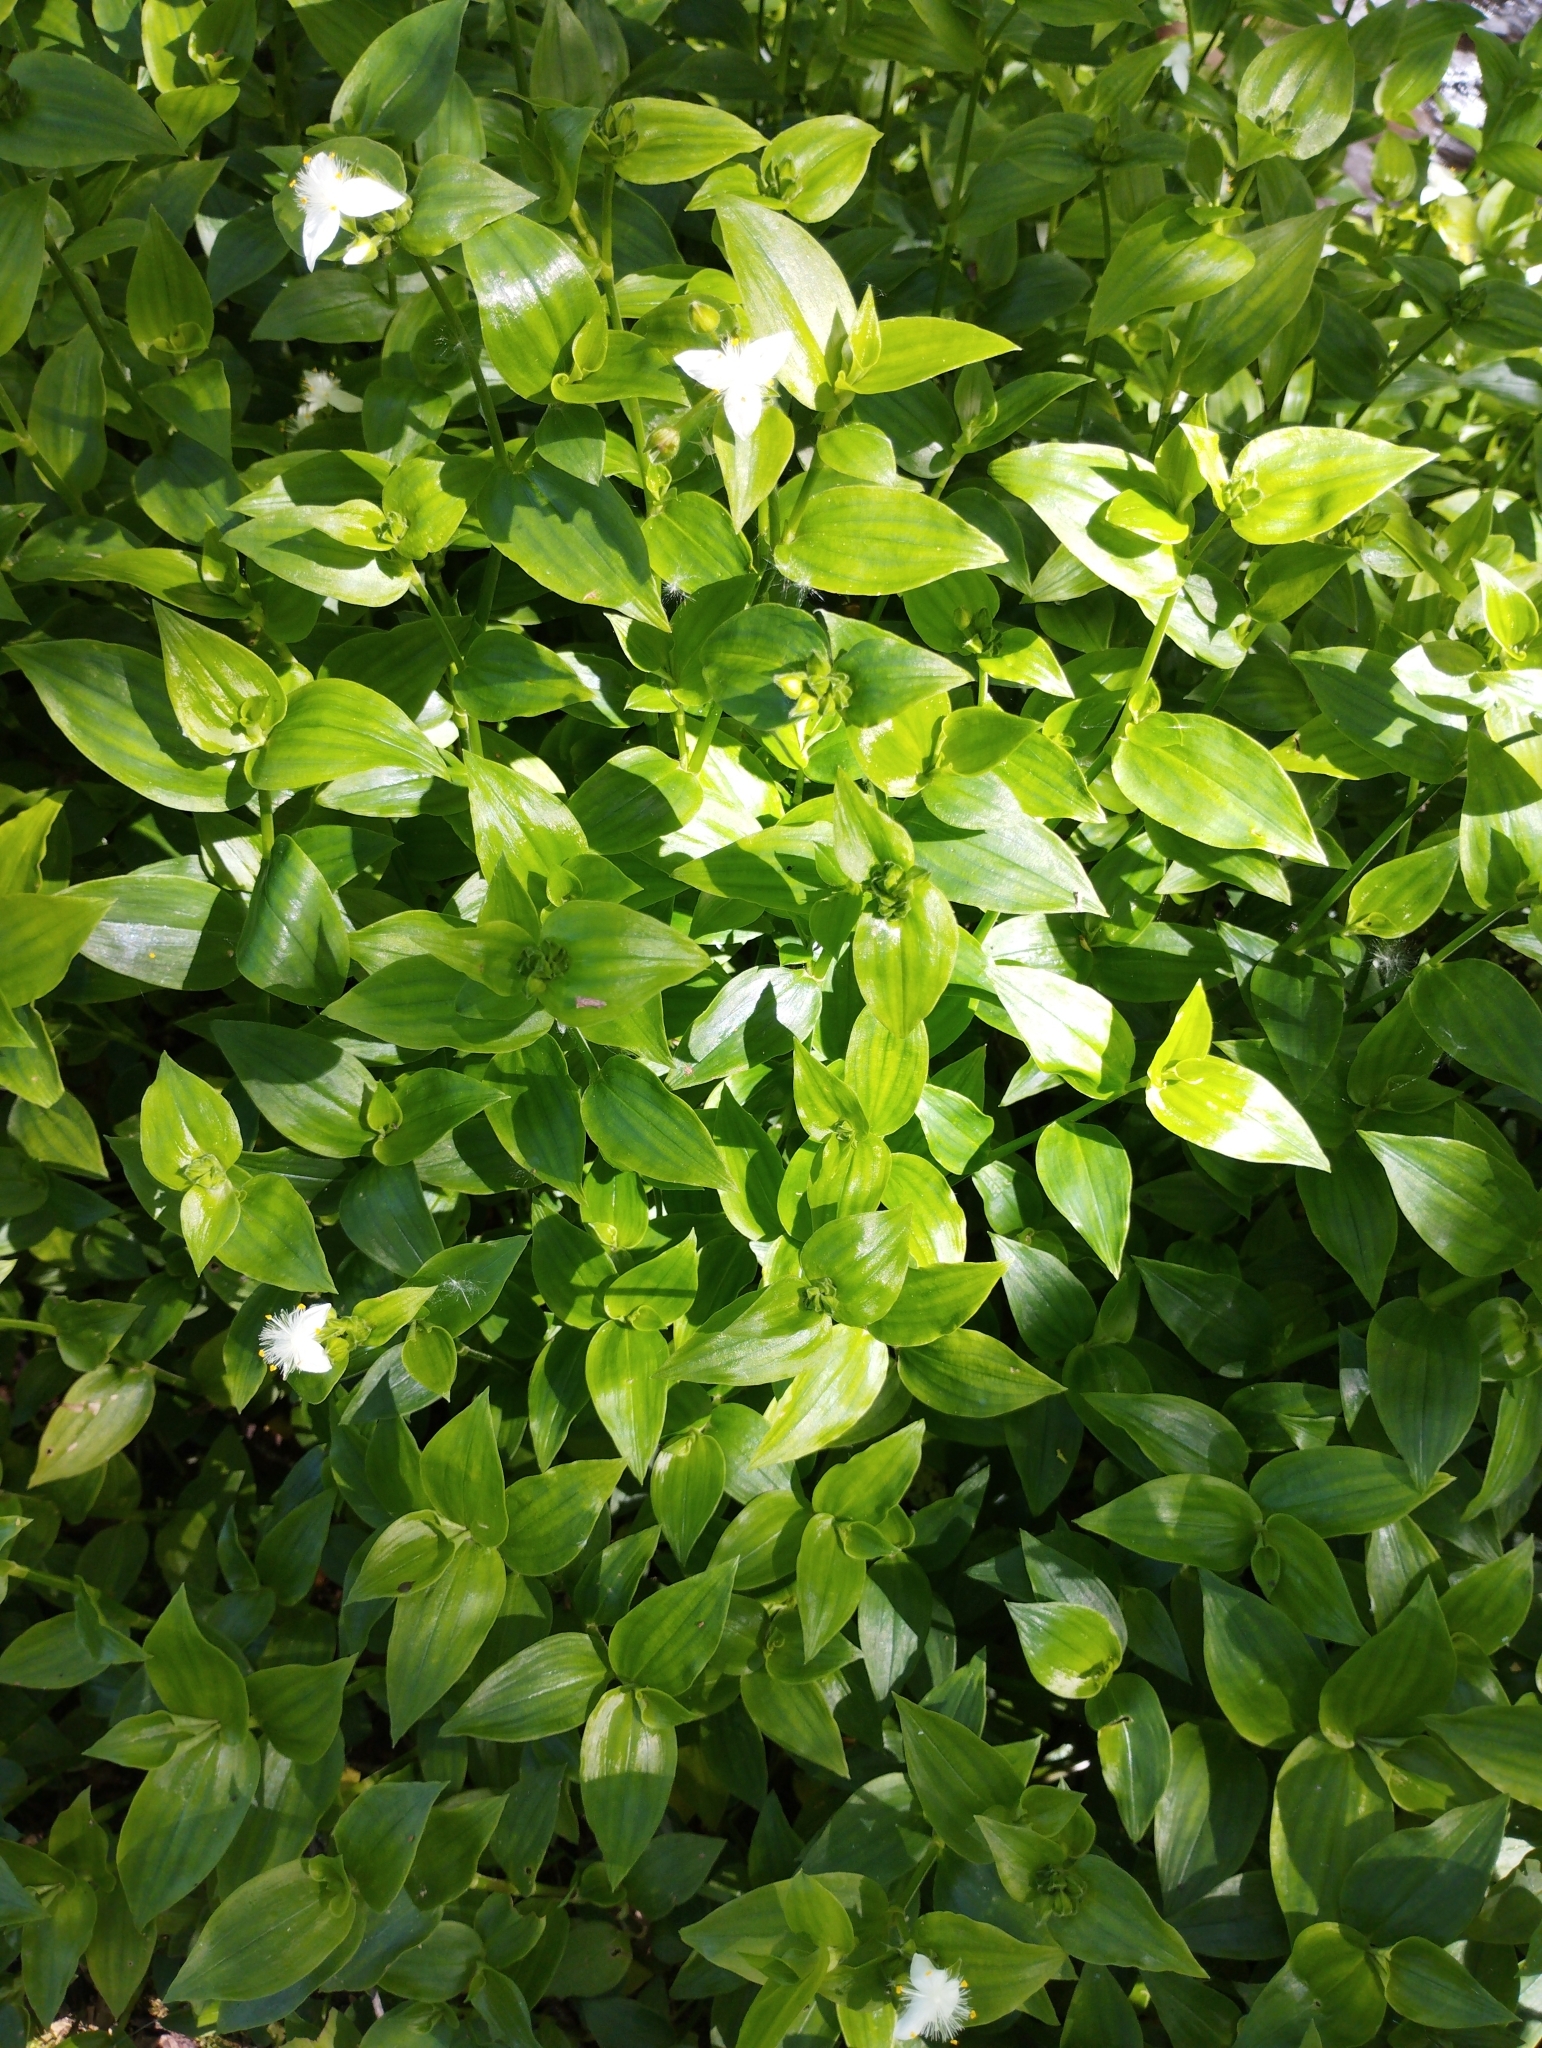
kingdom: Plantae
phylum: Tracheophyta
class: Liliopsida
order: Commelinales
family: Commelinaceae
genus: Tradescantia
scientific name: Tradescantia fluminensis
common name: Wandering-jew
